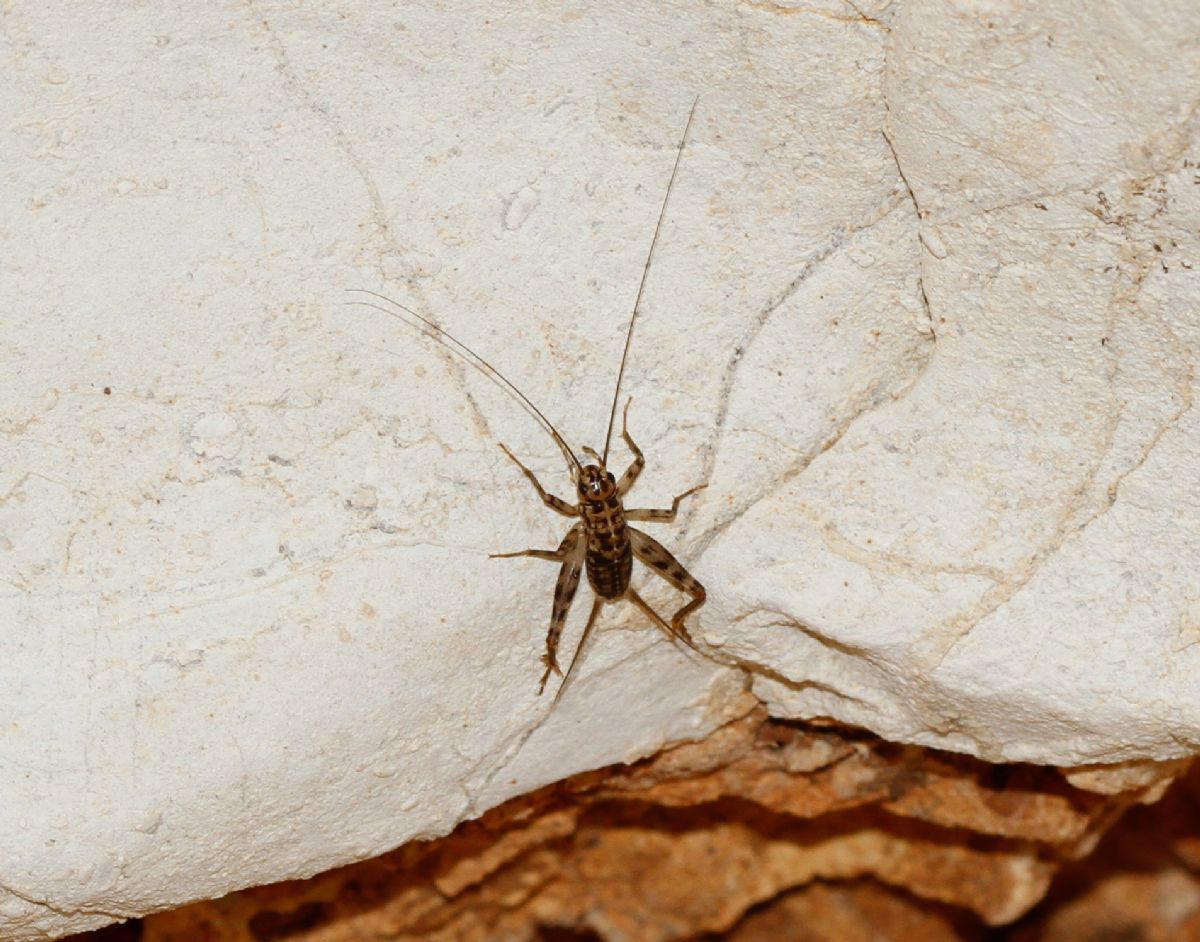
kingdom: Animalia
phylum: Arthropoda
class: Insecta
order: Orthoptera
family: Gryllidae
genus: Gryllomorpha
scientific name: Gryllomorpha dalmatina
